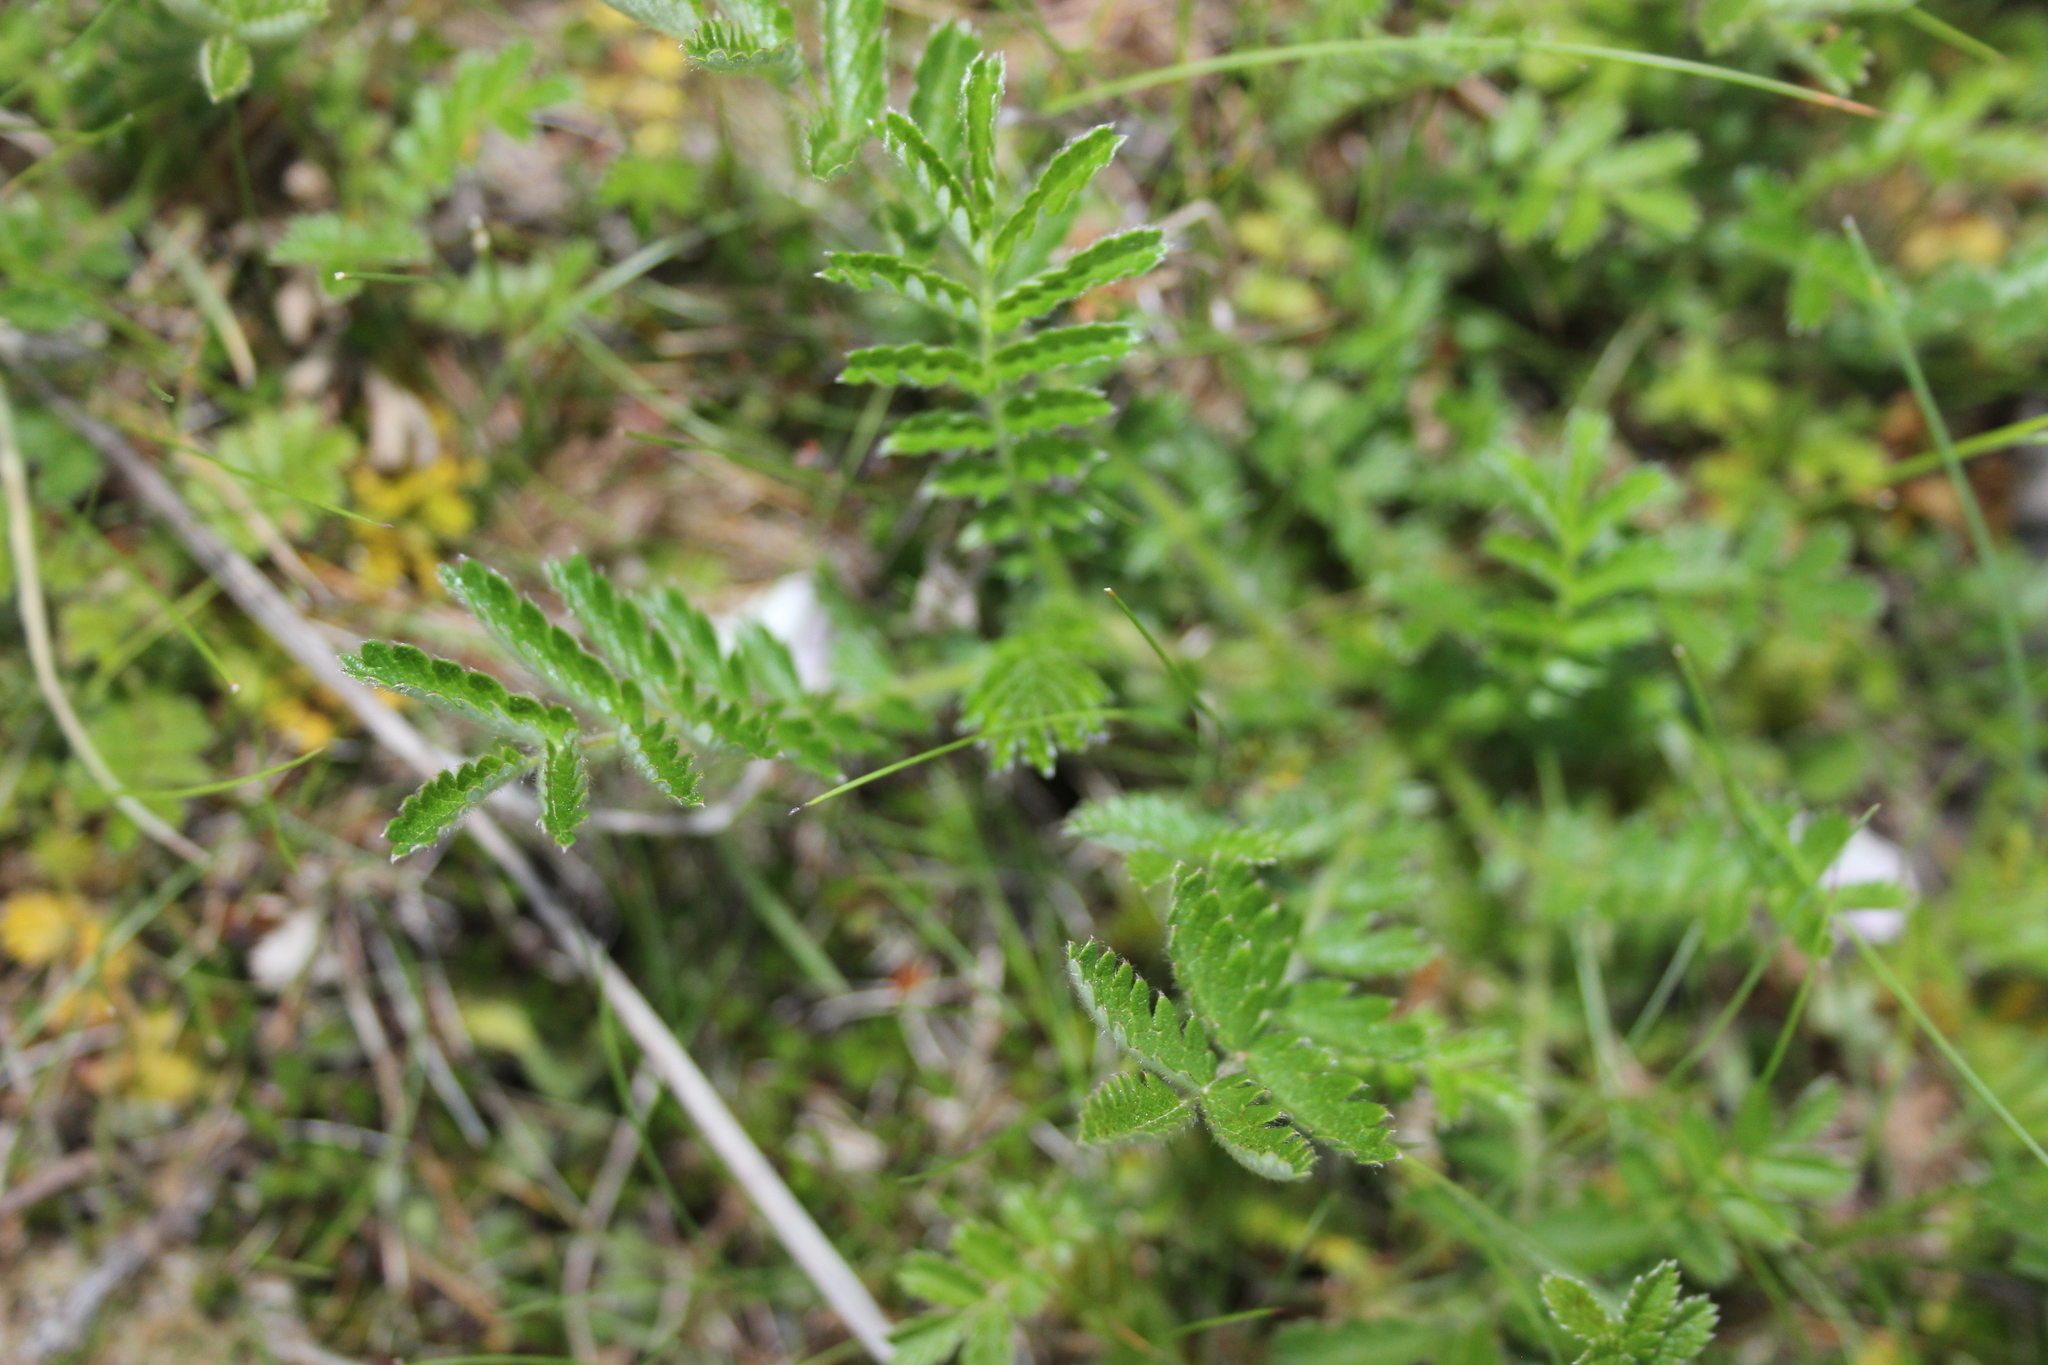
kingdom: Plantae
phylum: Tracheophyta
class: Magnoliopsida
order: Rosales
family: Rosaceae
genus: Acaena
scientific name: Acaena
